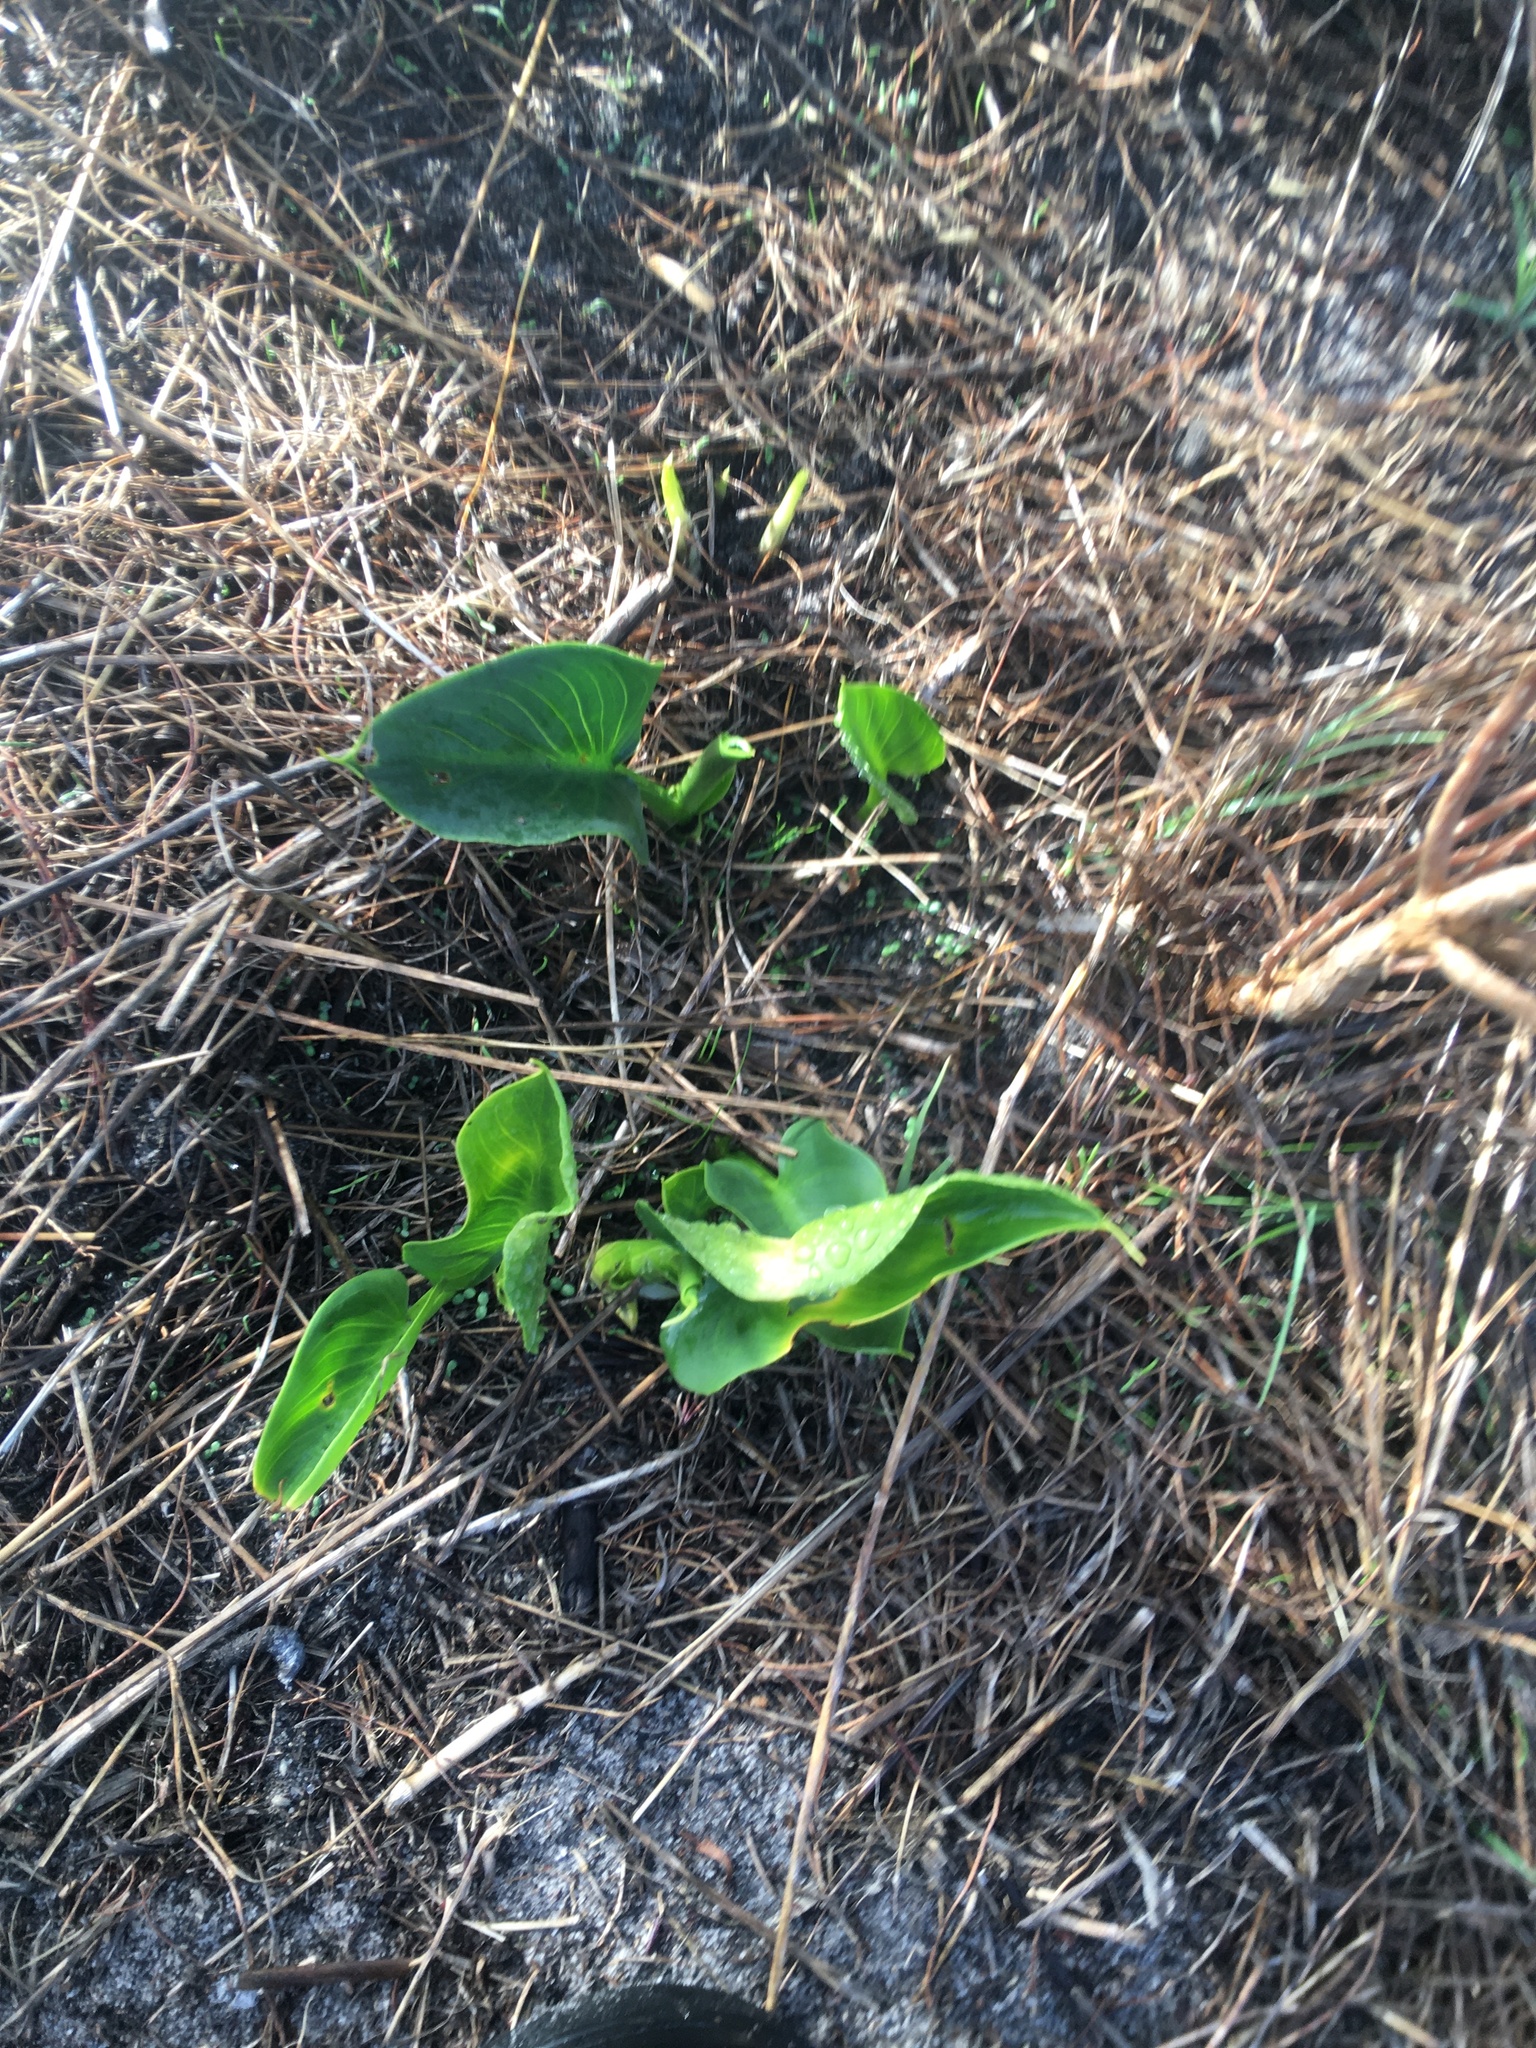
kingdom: Plantae
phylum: Tracheophyta
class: Liliopsida
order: Alismatales
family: Araceae
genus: Zantedeschia
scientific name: Zantedeschia aethiopica
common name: Altar-lily
